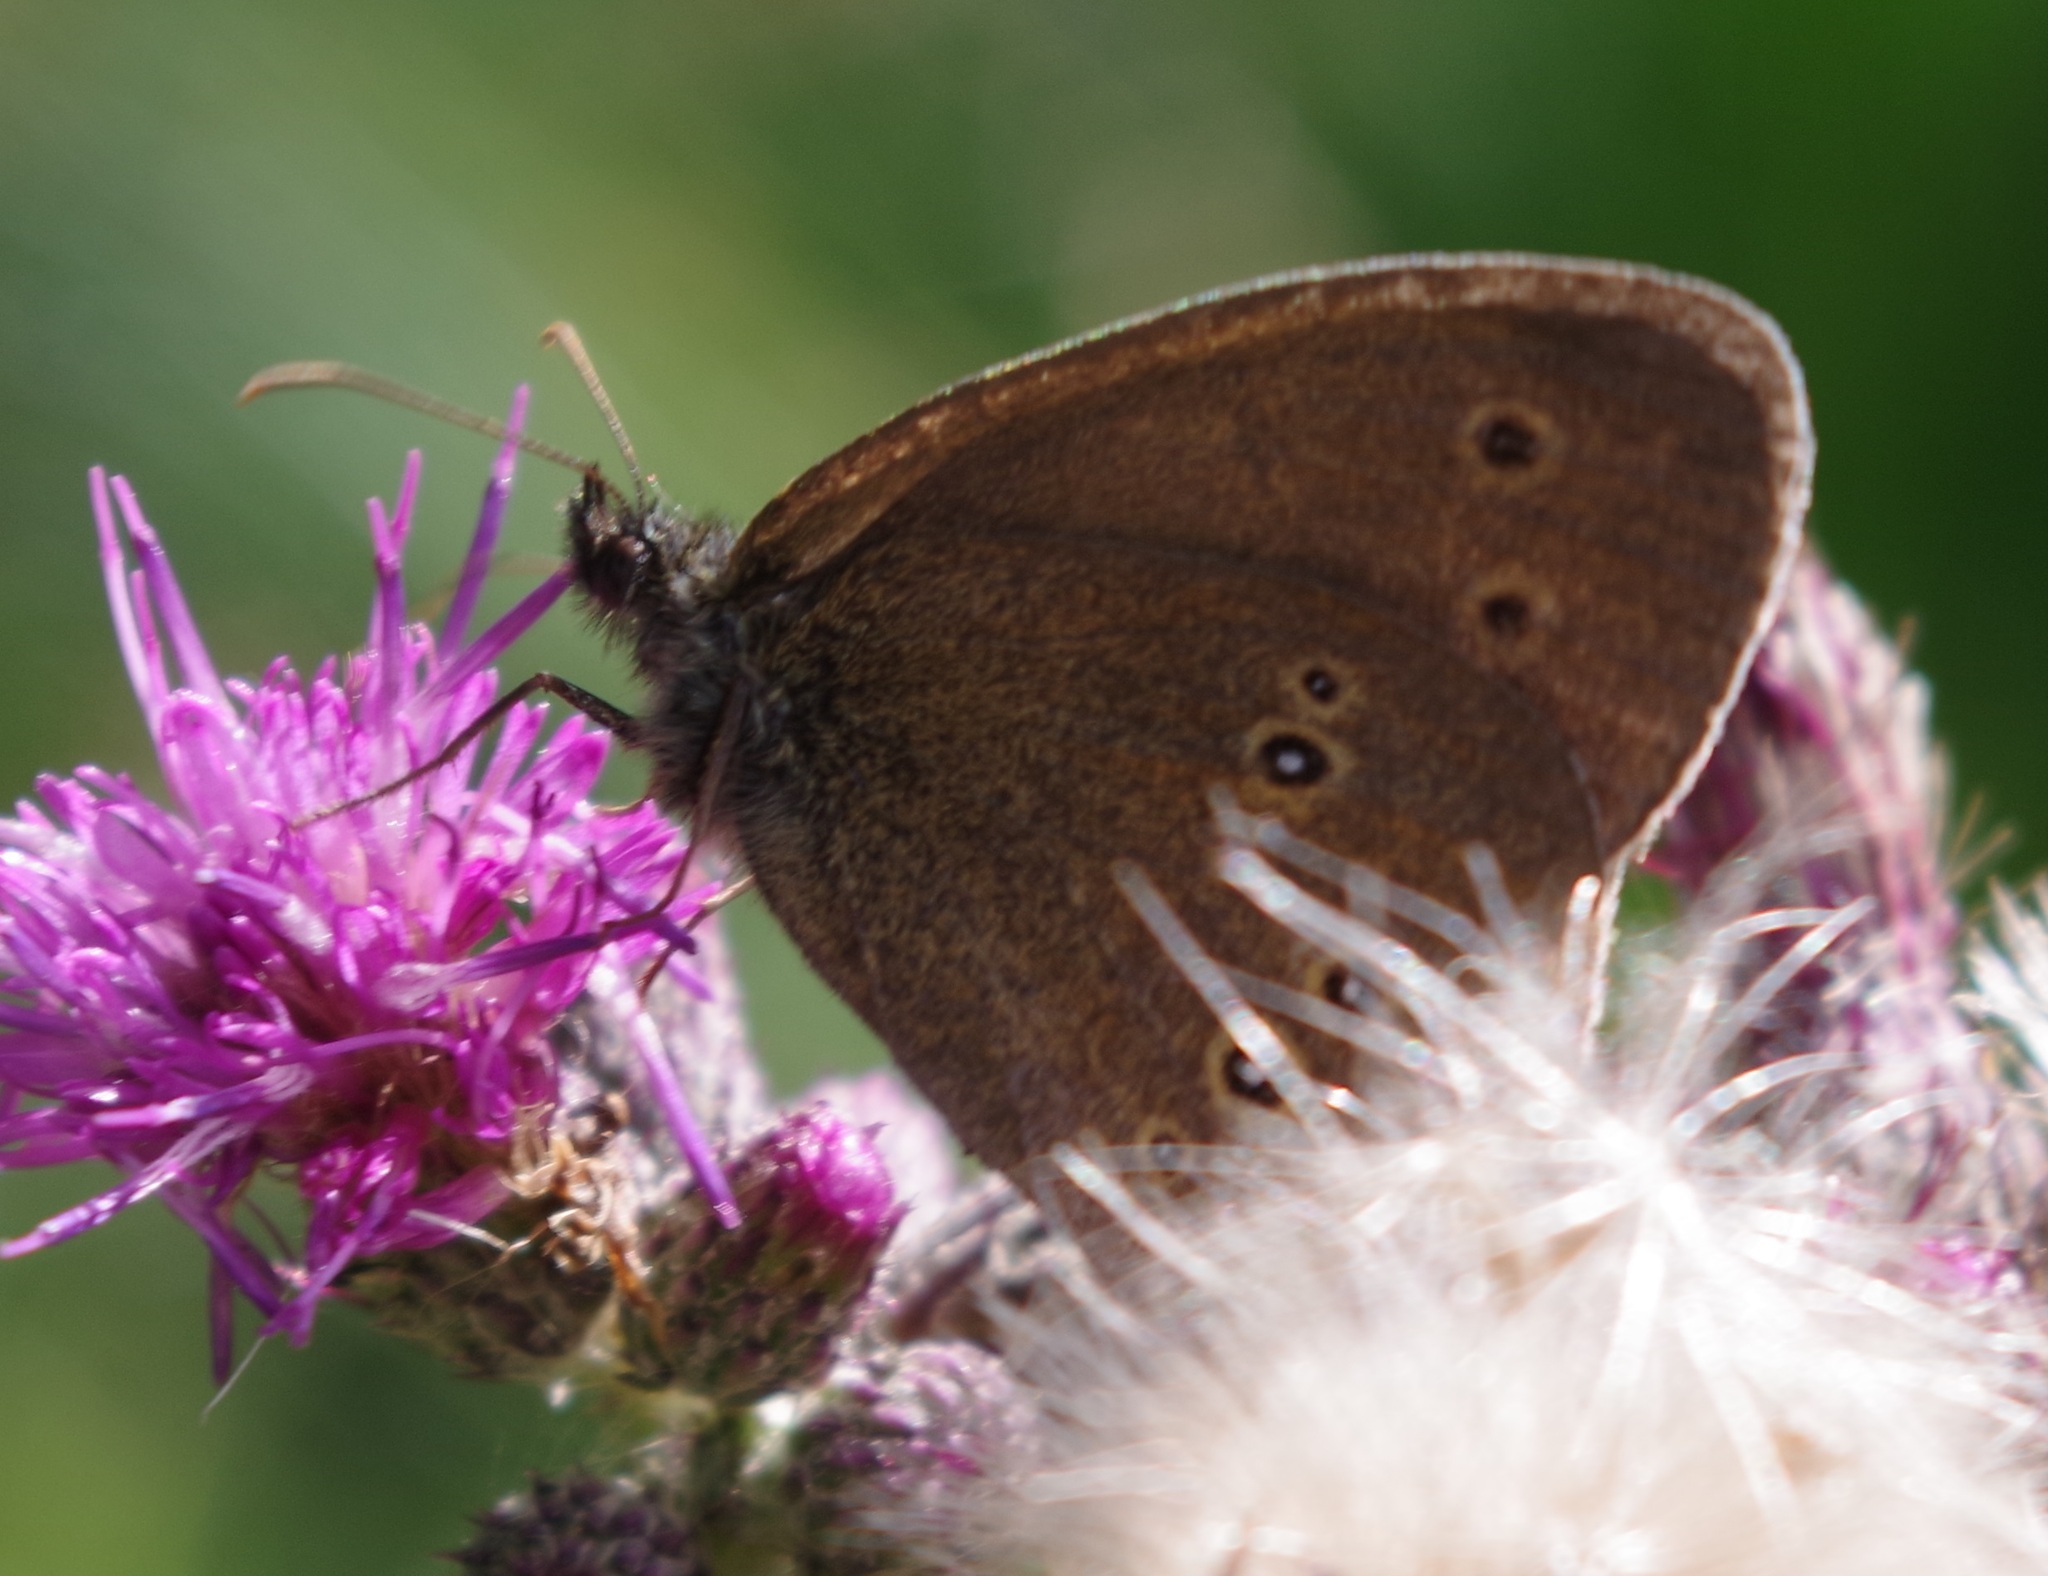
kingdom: Animalia
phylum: Arthropoda
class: Insecta
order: Lepidoptera
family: Nymphalidae
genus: Aphantopus
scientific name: Aphantopus hyperantus
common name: Ringlet
